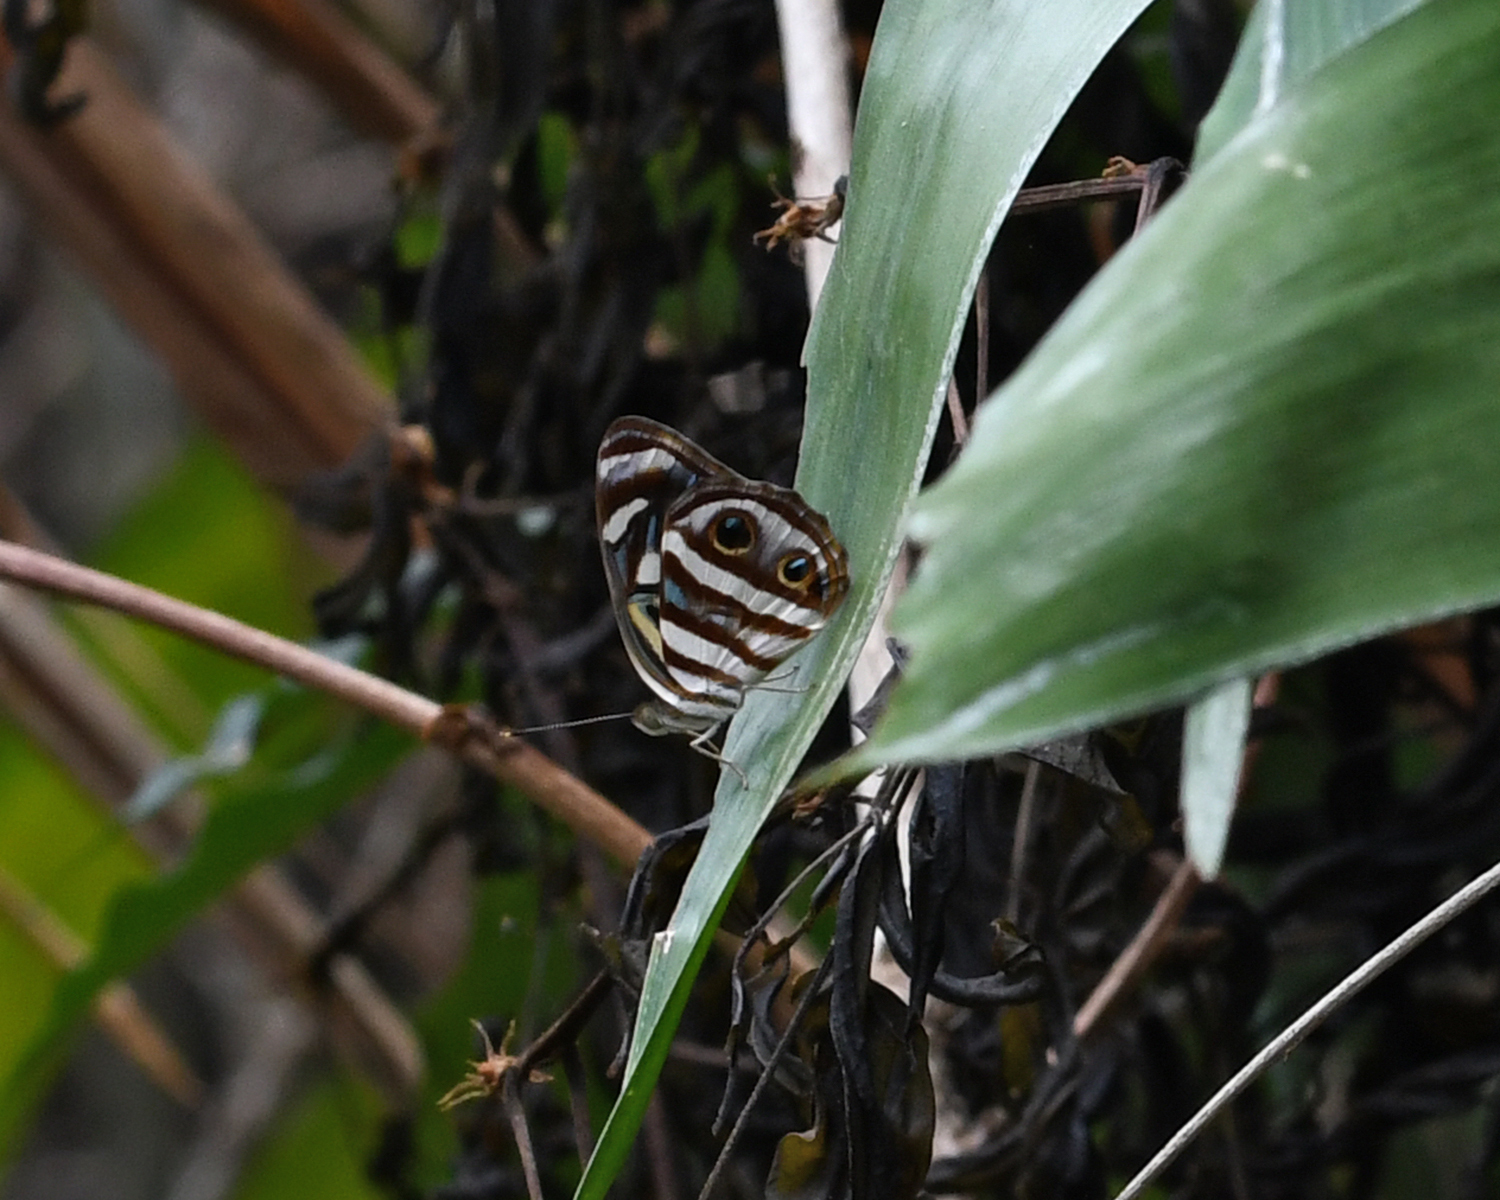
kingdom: Animalia
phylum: Arthropoda
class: Insecta
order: Lepidoptera
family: Nymphalidae
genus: Dynamine
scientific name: Dynamine mylitta
